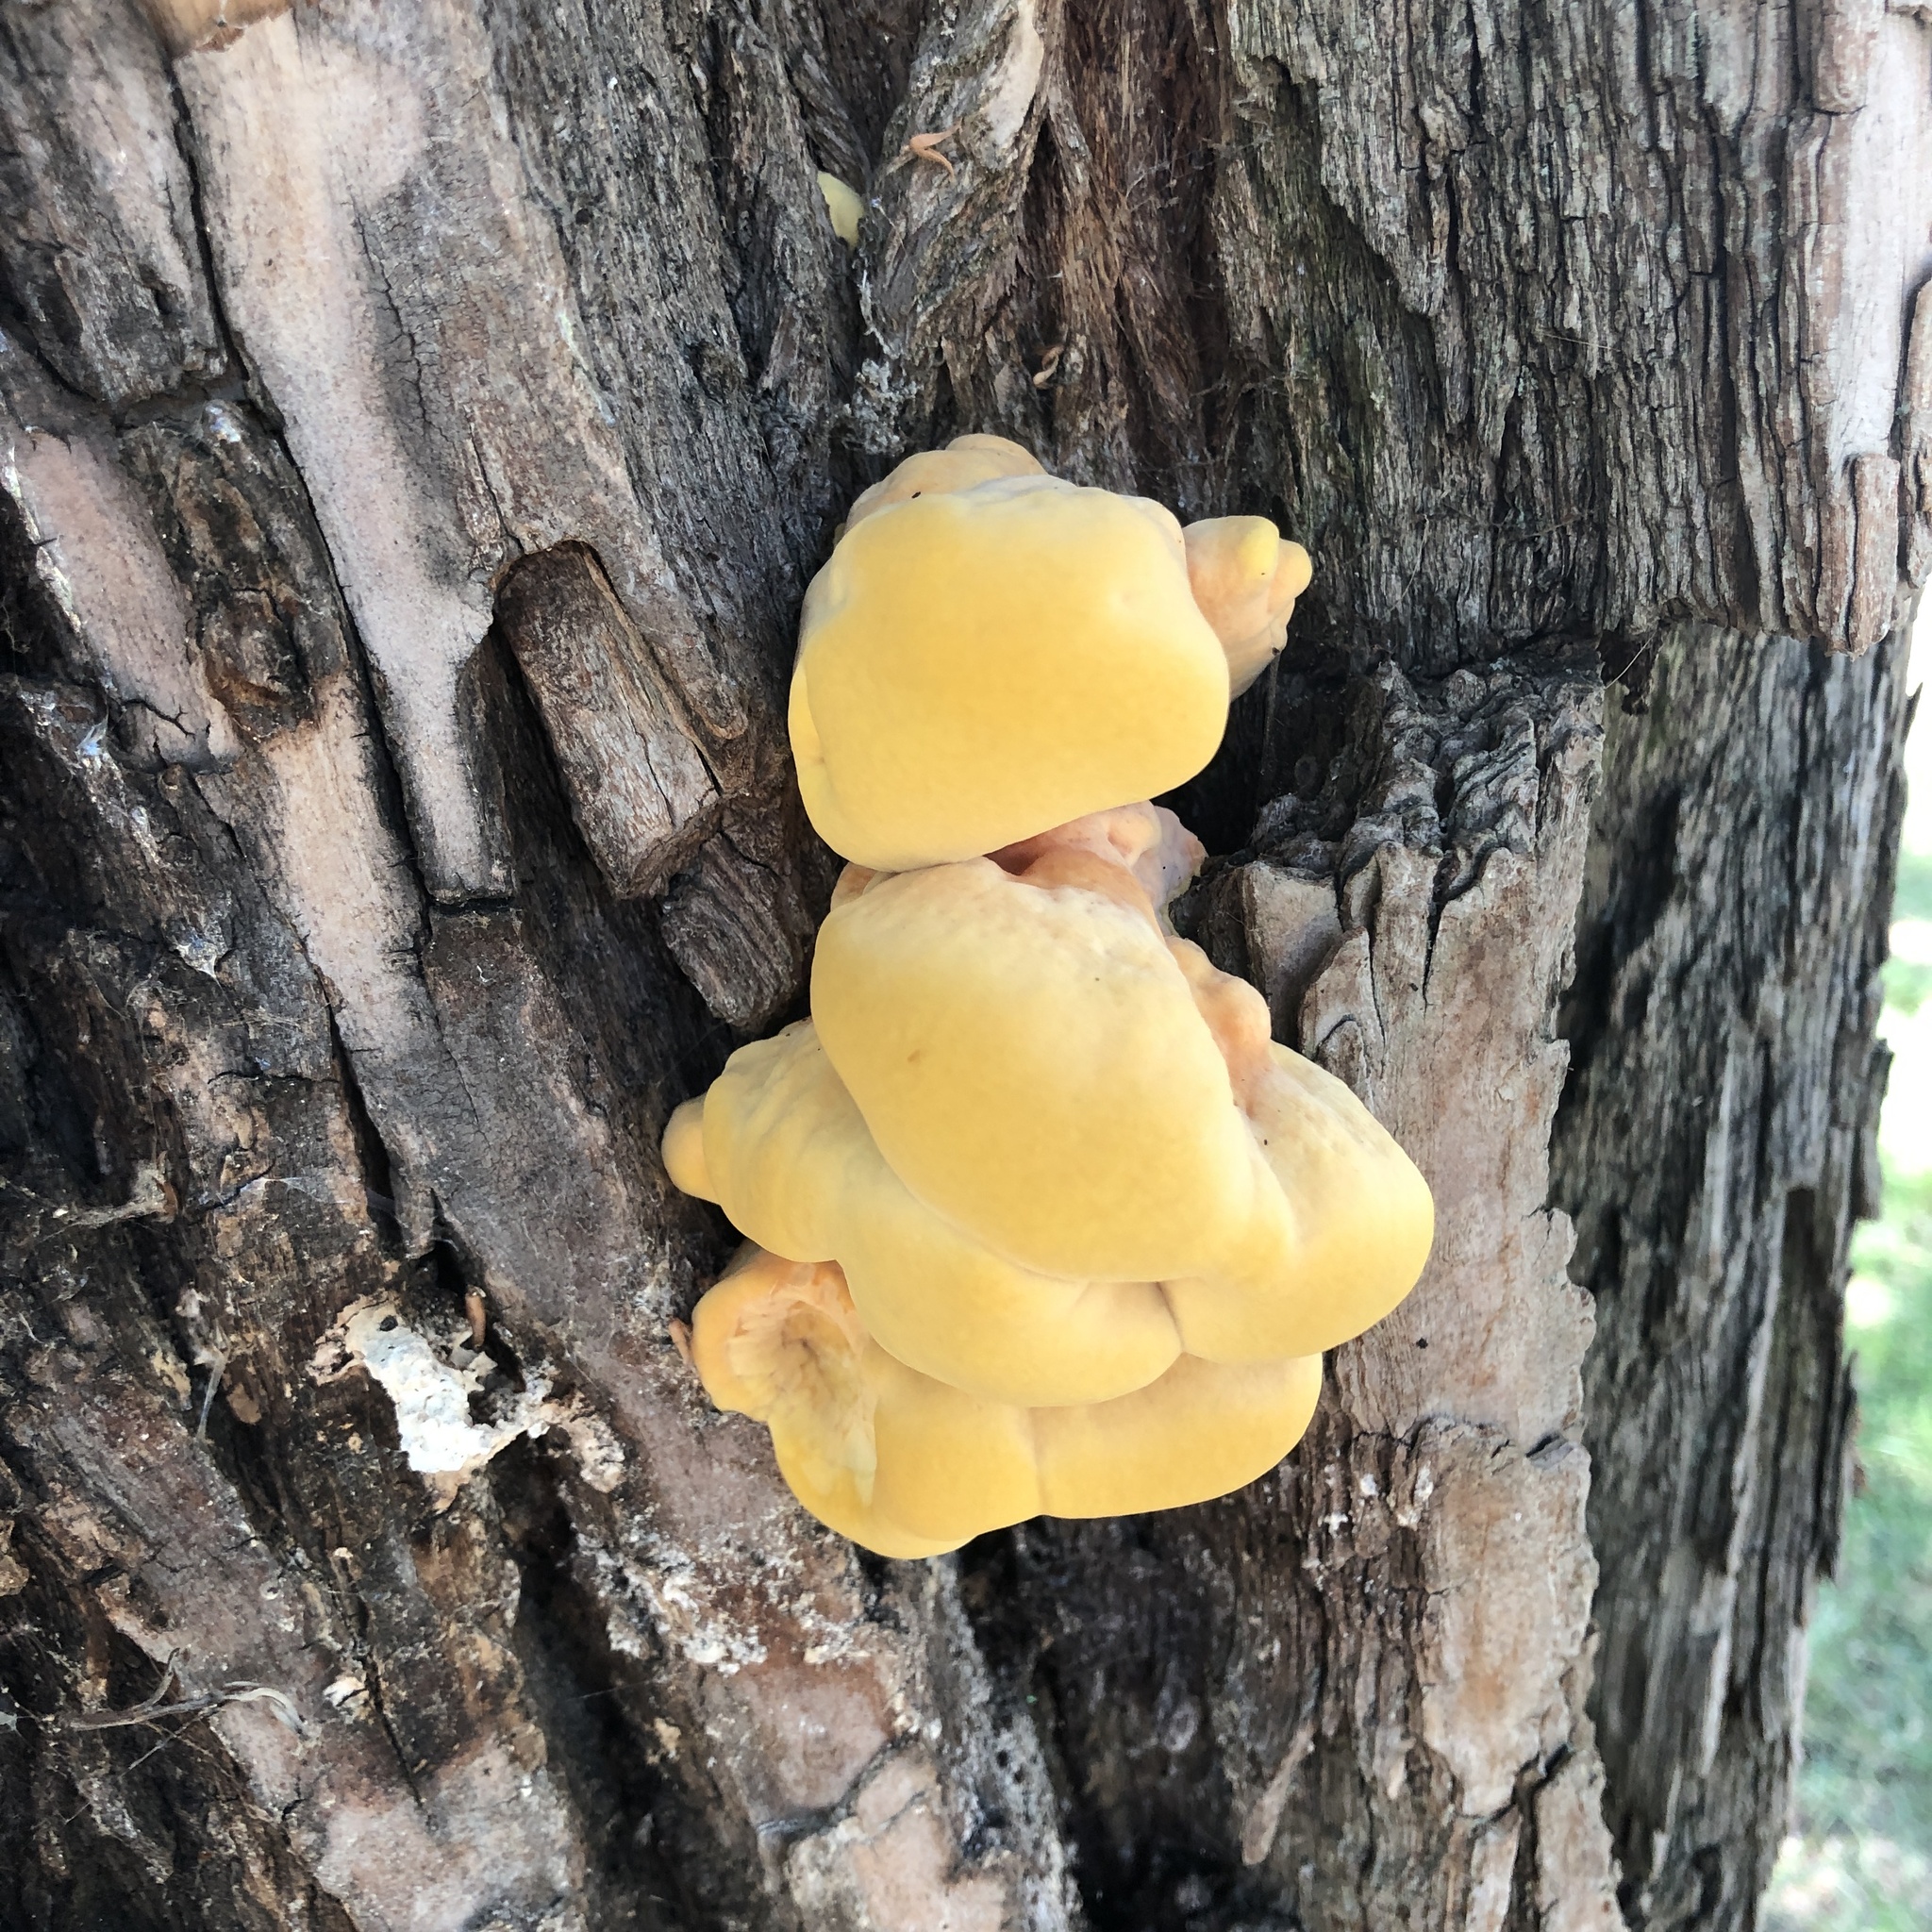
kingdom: Fungi
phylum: Basidiomycota
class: Agaricomycetes
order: Polyporales
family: Laetiporaceae
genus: Laetiporus
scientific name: Laetiporus sulphureus
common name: Chicken of the woods
